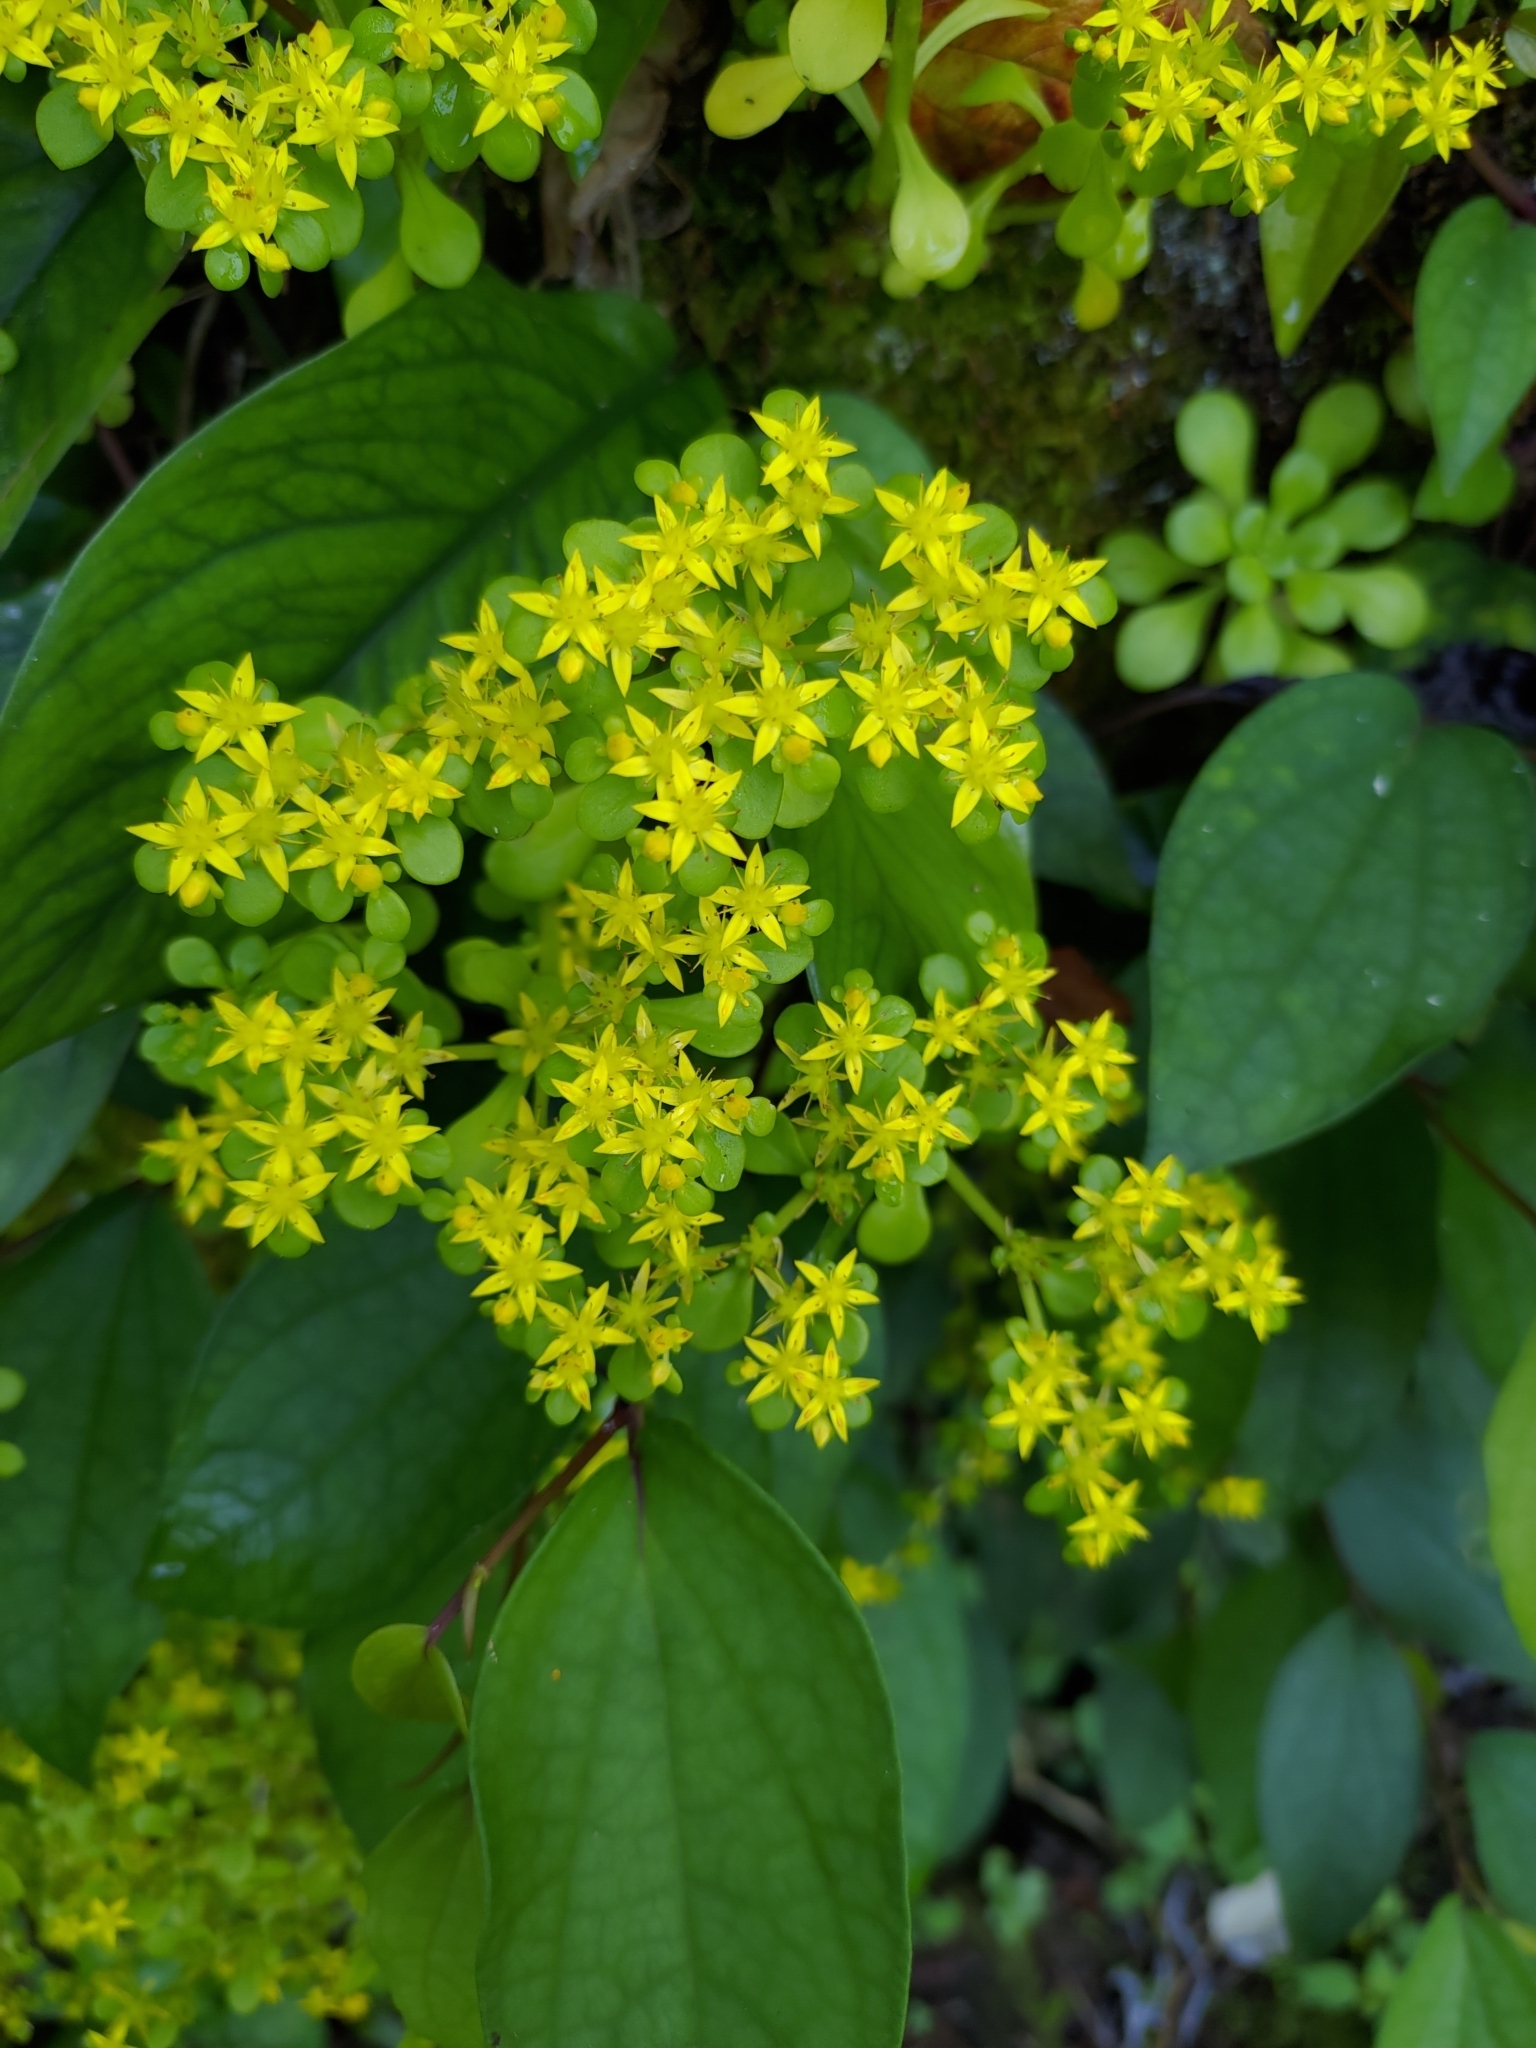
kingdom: Plantae
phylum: Tracheophyta
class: Magnoliopsida
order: Saxifragales
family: Crassulaceae
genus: Sedum
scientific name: Sedum formosanum
